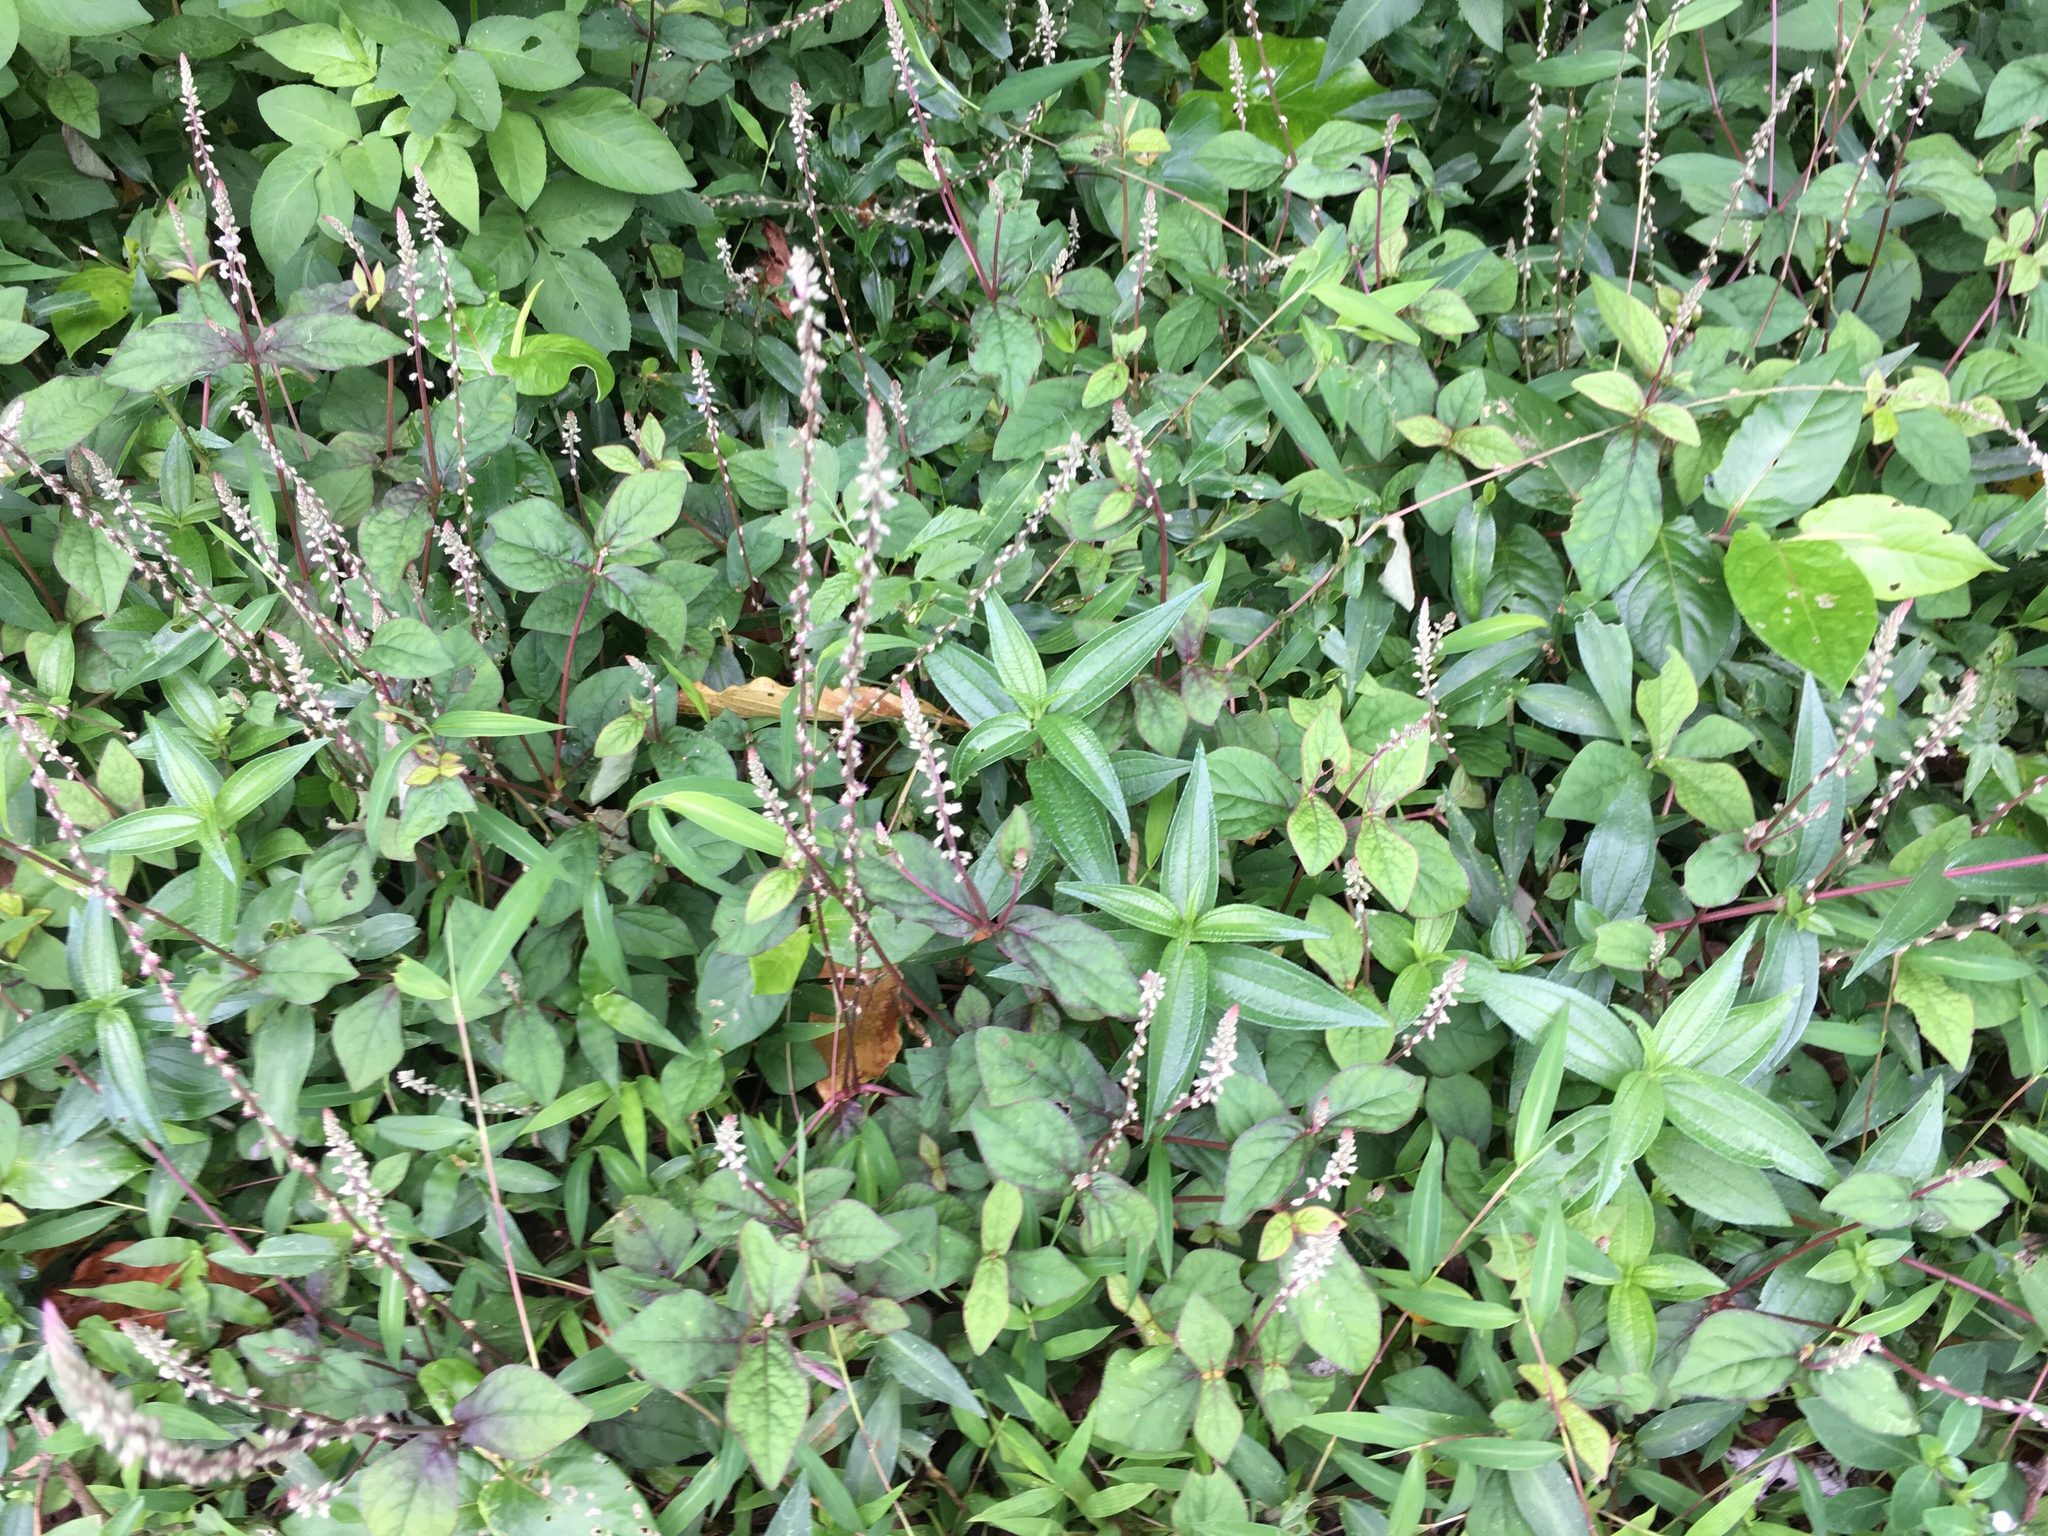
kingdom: Plantae
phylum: Tracheophyta
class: Magnoliopsida
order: Caryophyllales
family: Amaranthaceae
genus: Cyathula
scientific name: Cyathula prostrata
